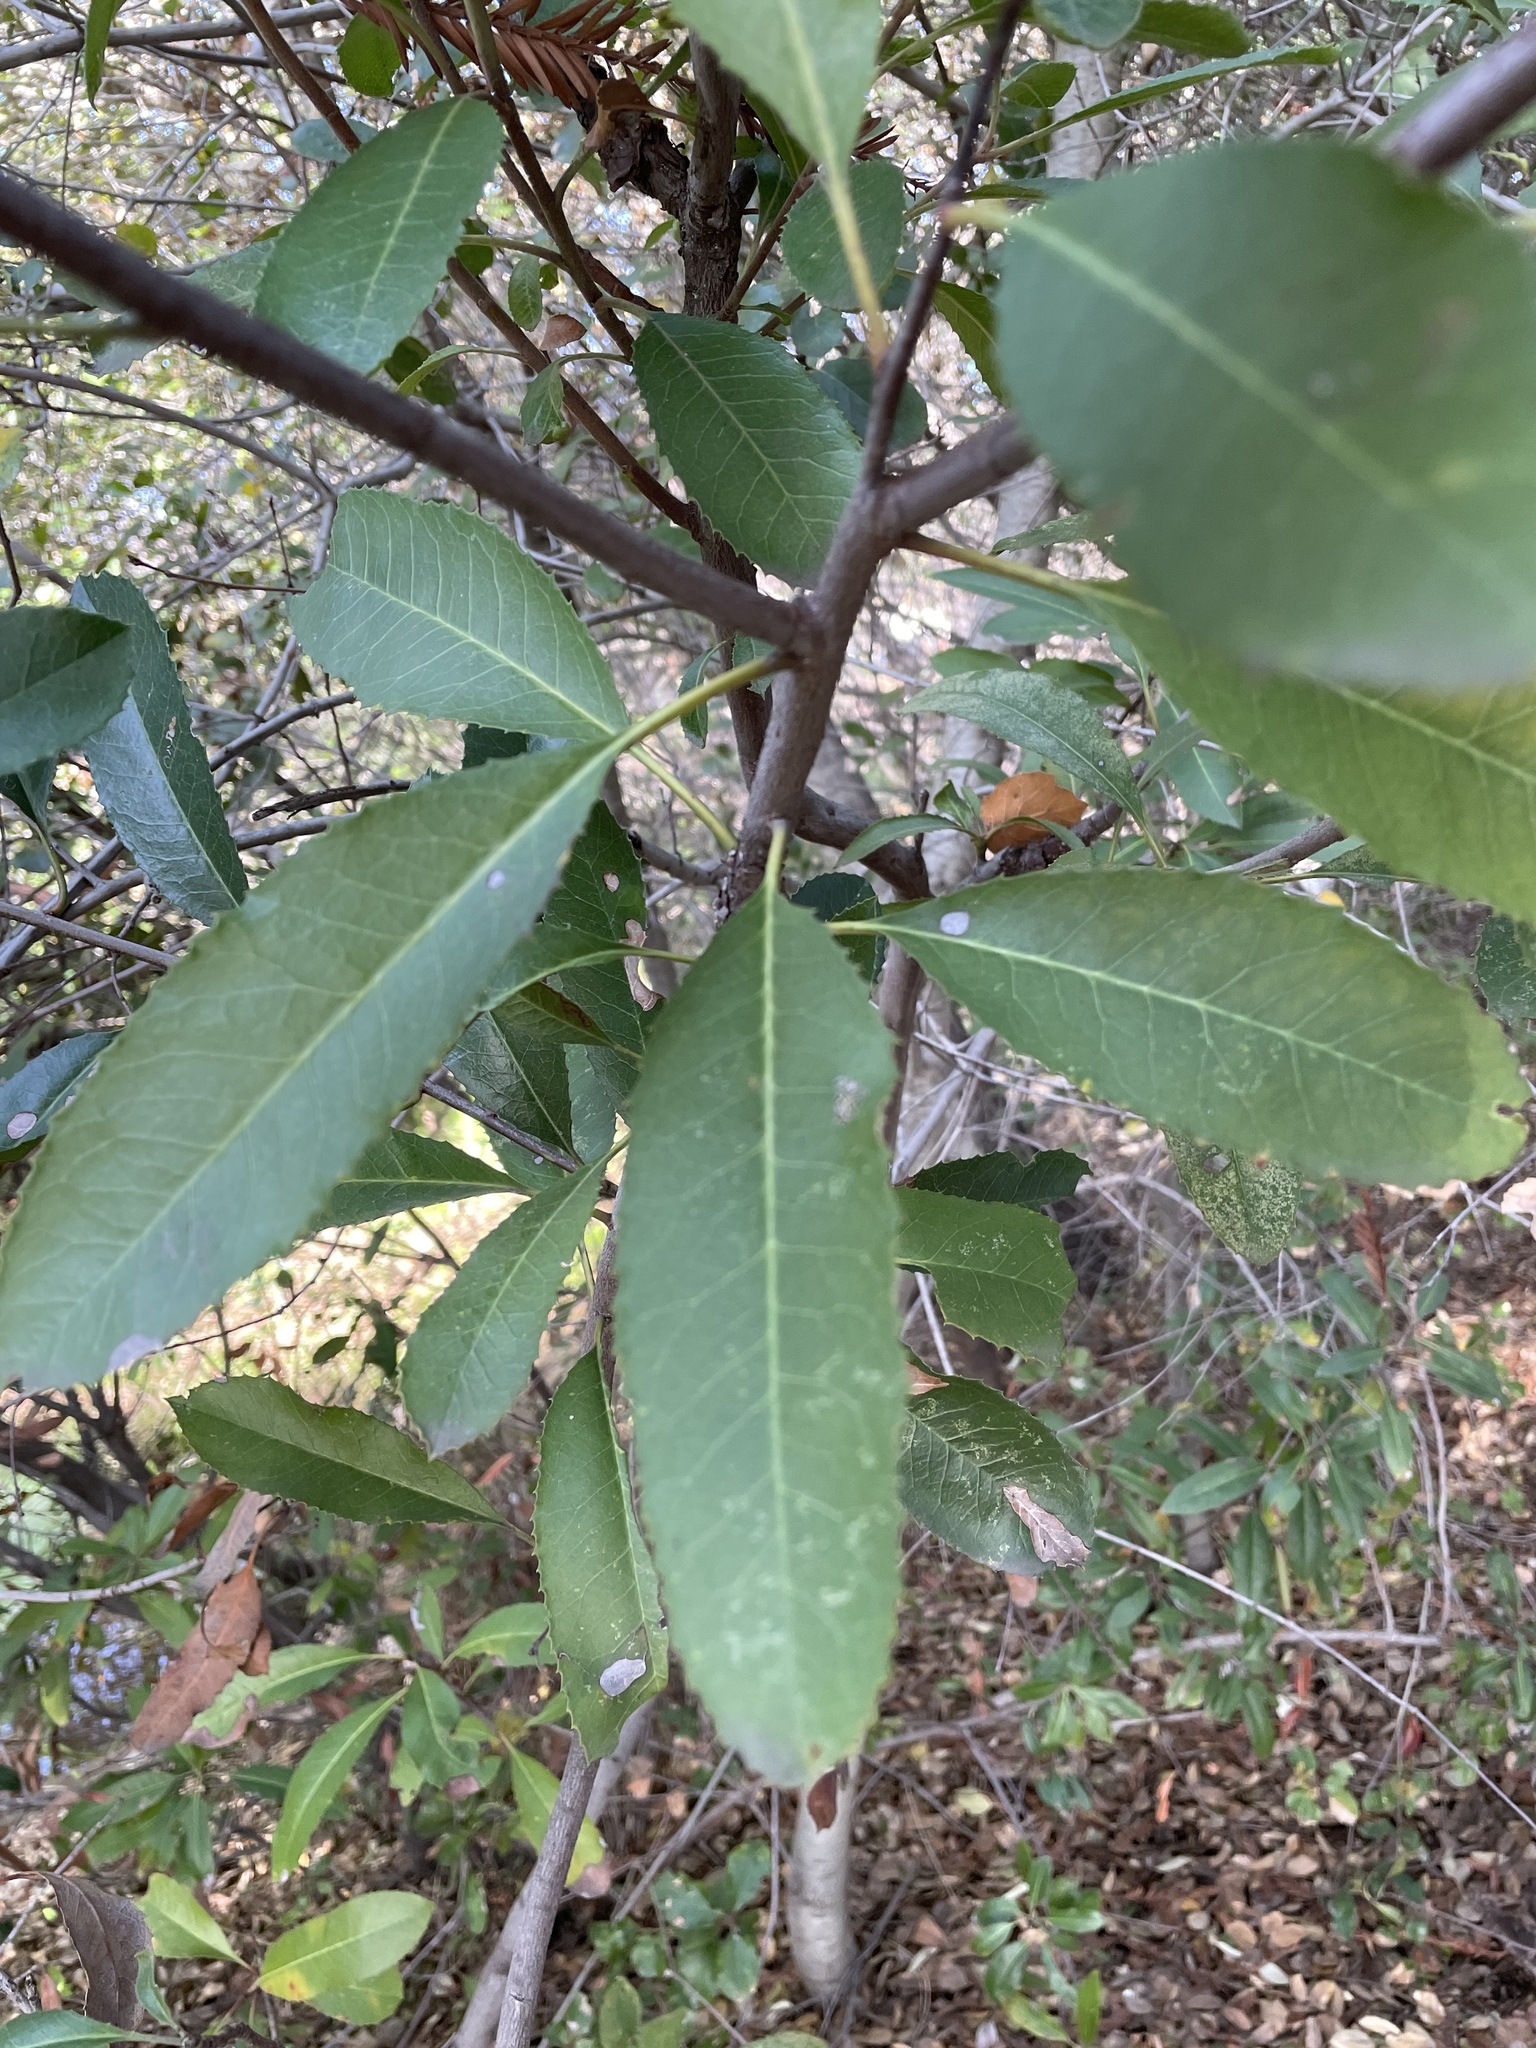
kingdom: Plantae
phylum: Tracheophyta
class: Magnoliopsida
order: Rosales
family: Rosaceae
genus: Heteromeles
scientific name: Heteromeles arbutifolia
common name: California-holly
